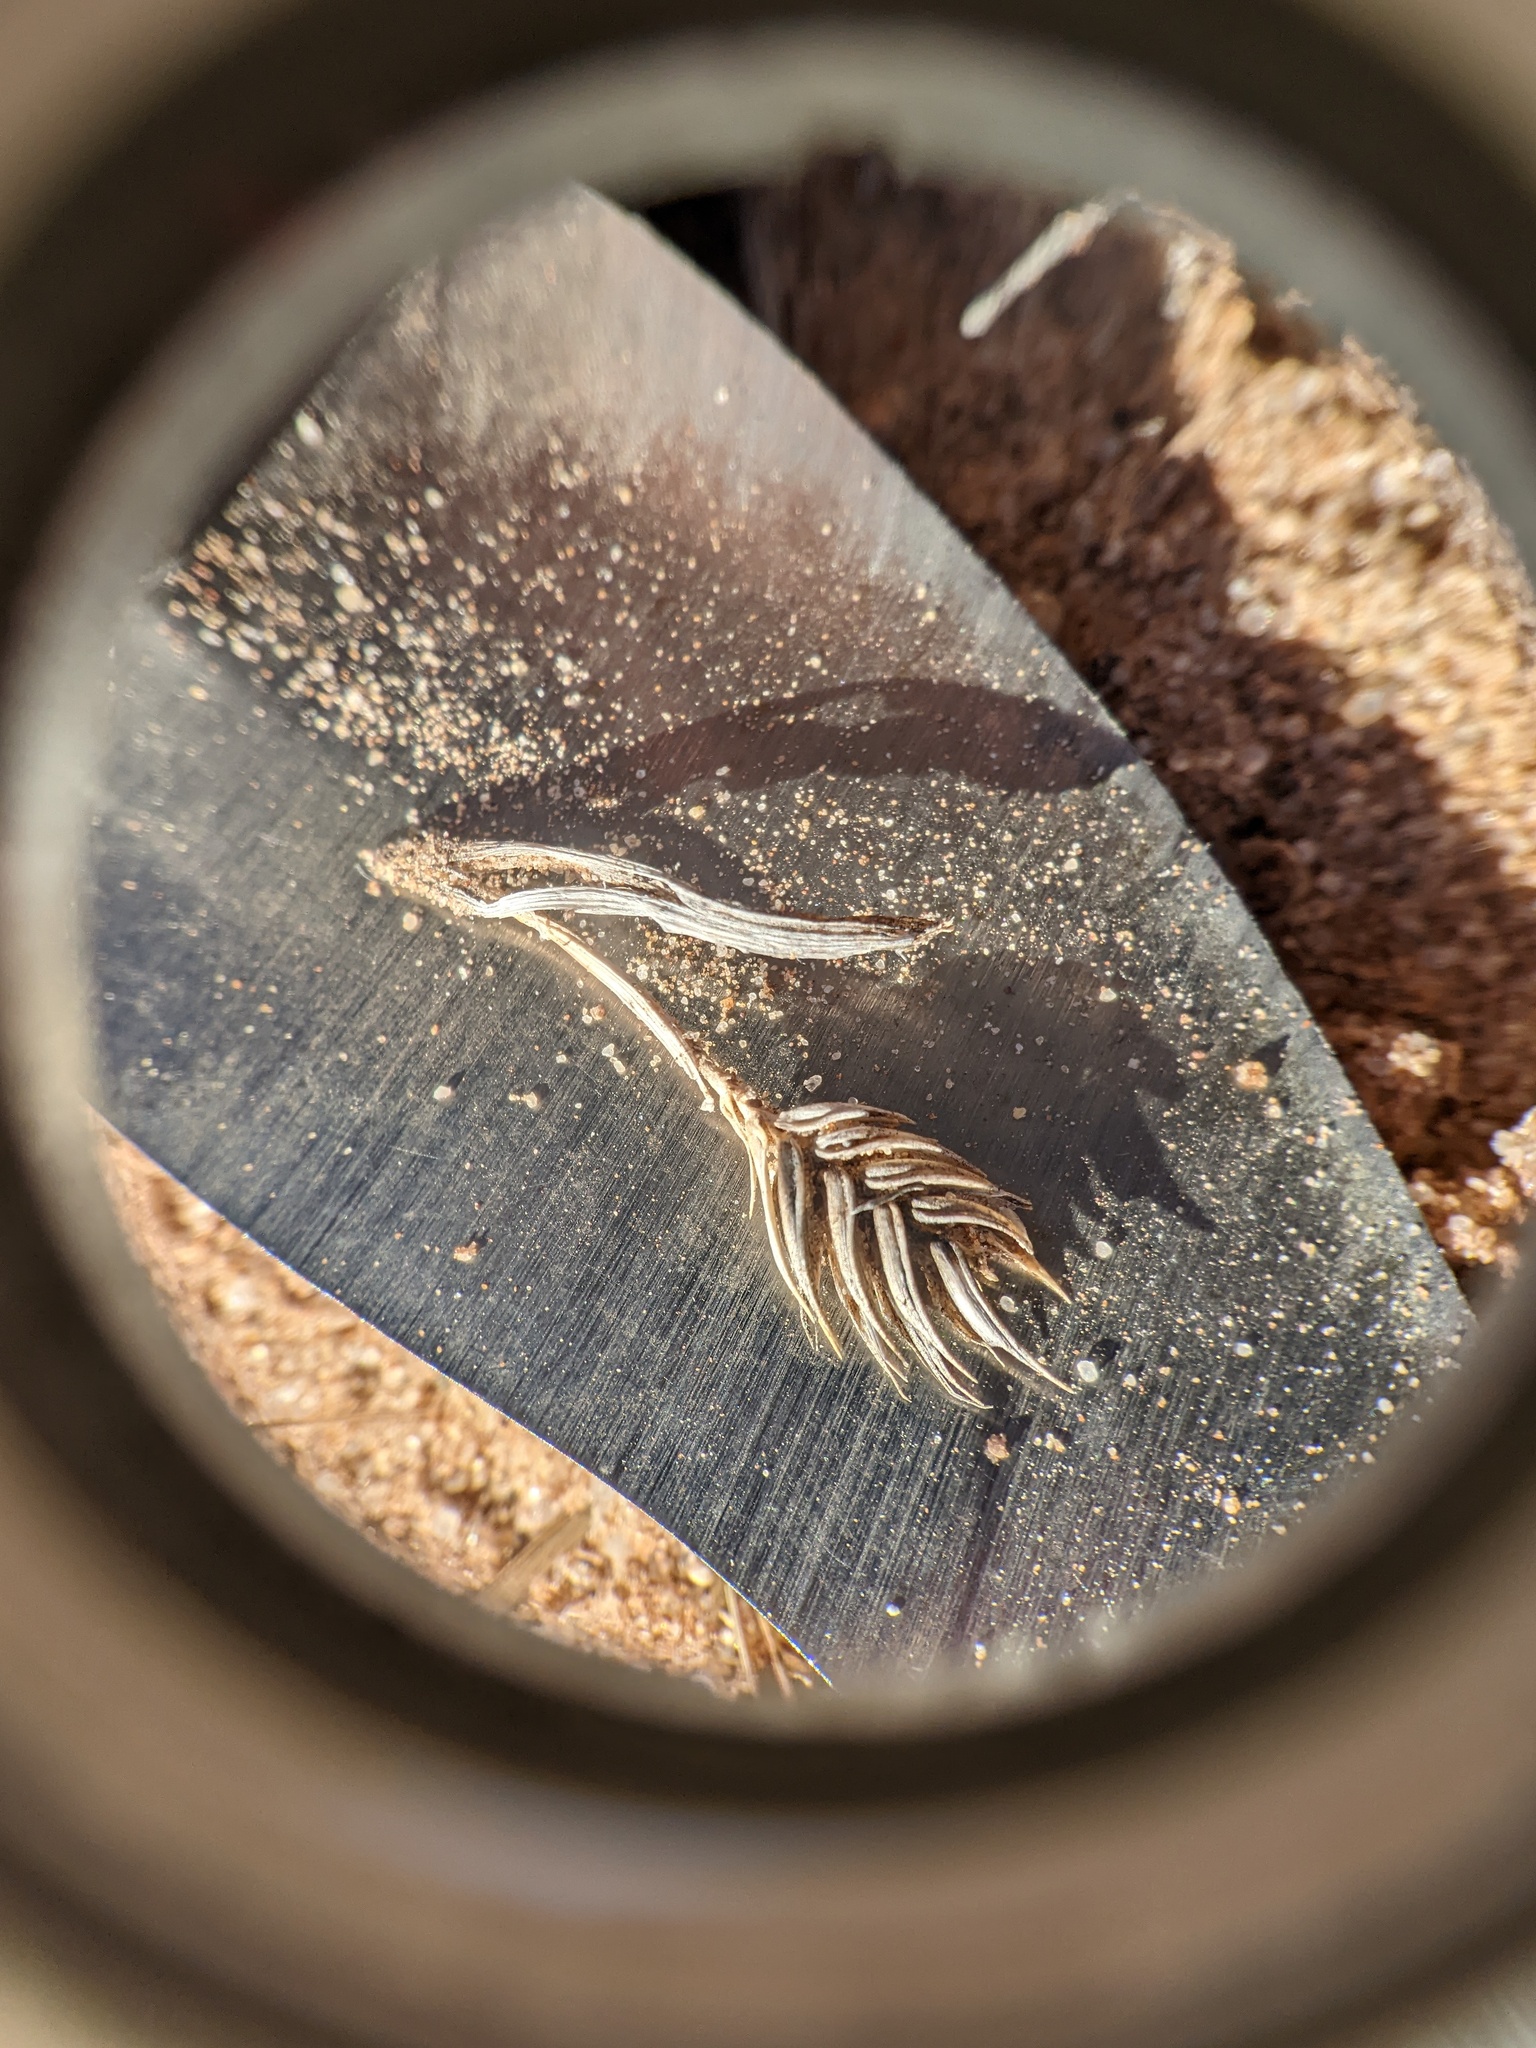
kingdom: Plantae
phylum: Tracheophyta
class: Liliopsida
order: Poales
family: Poaceae
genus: Eremopyrum
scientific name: Eremopyrum triticeum
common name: Annual wheatgrass
